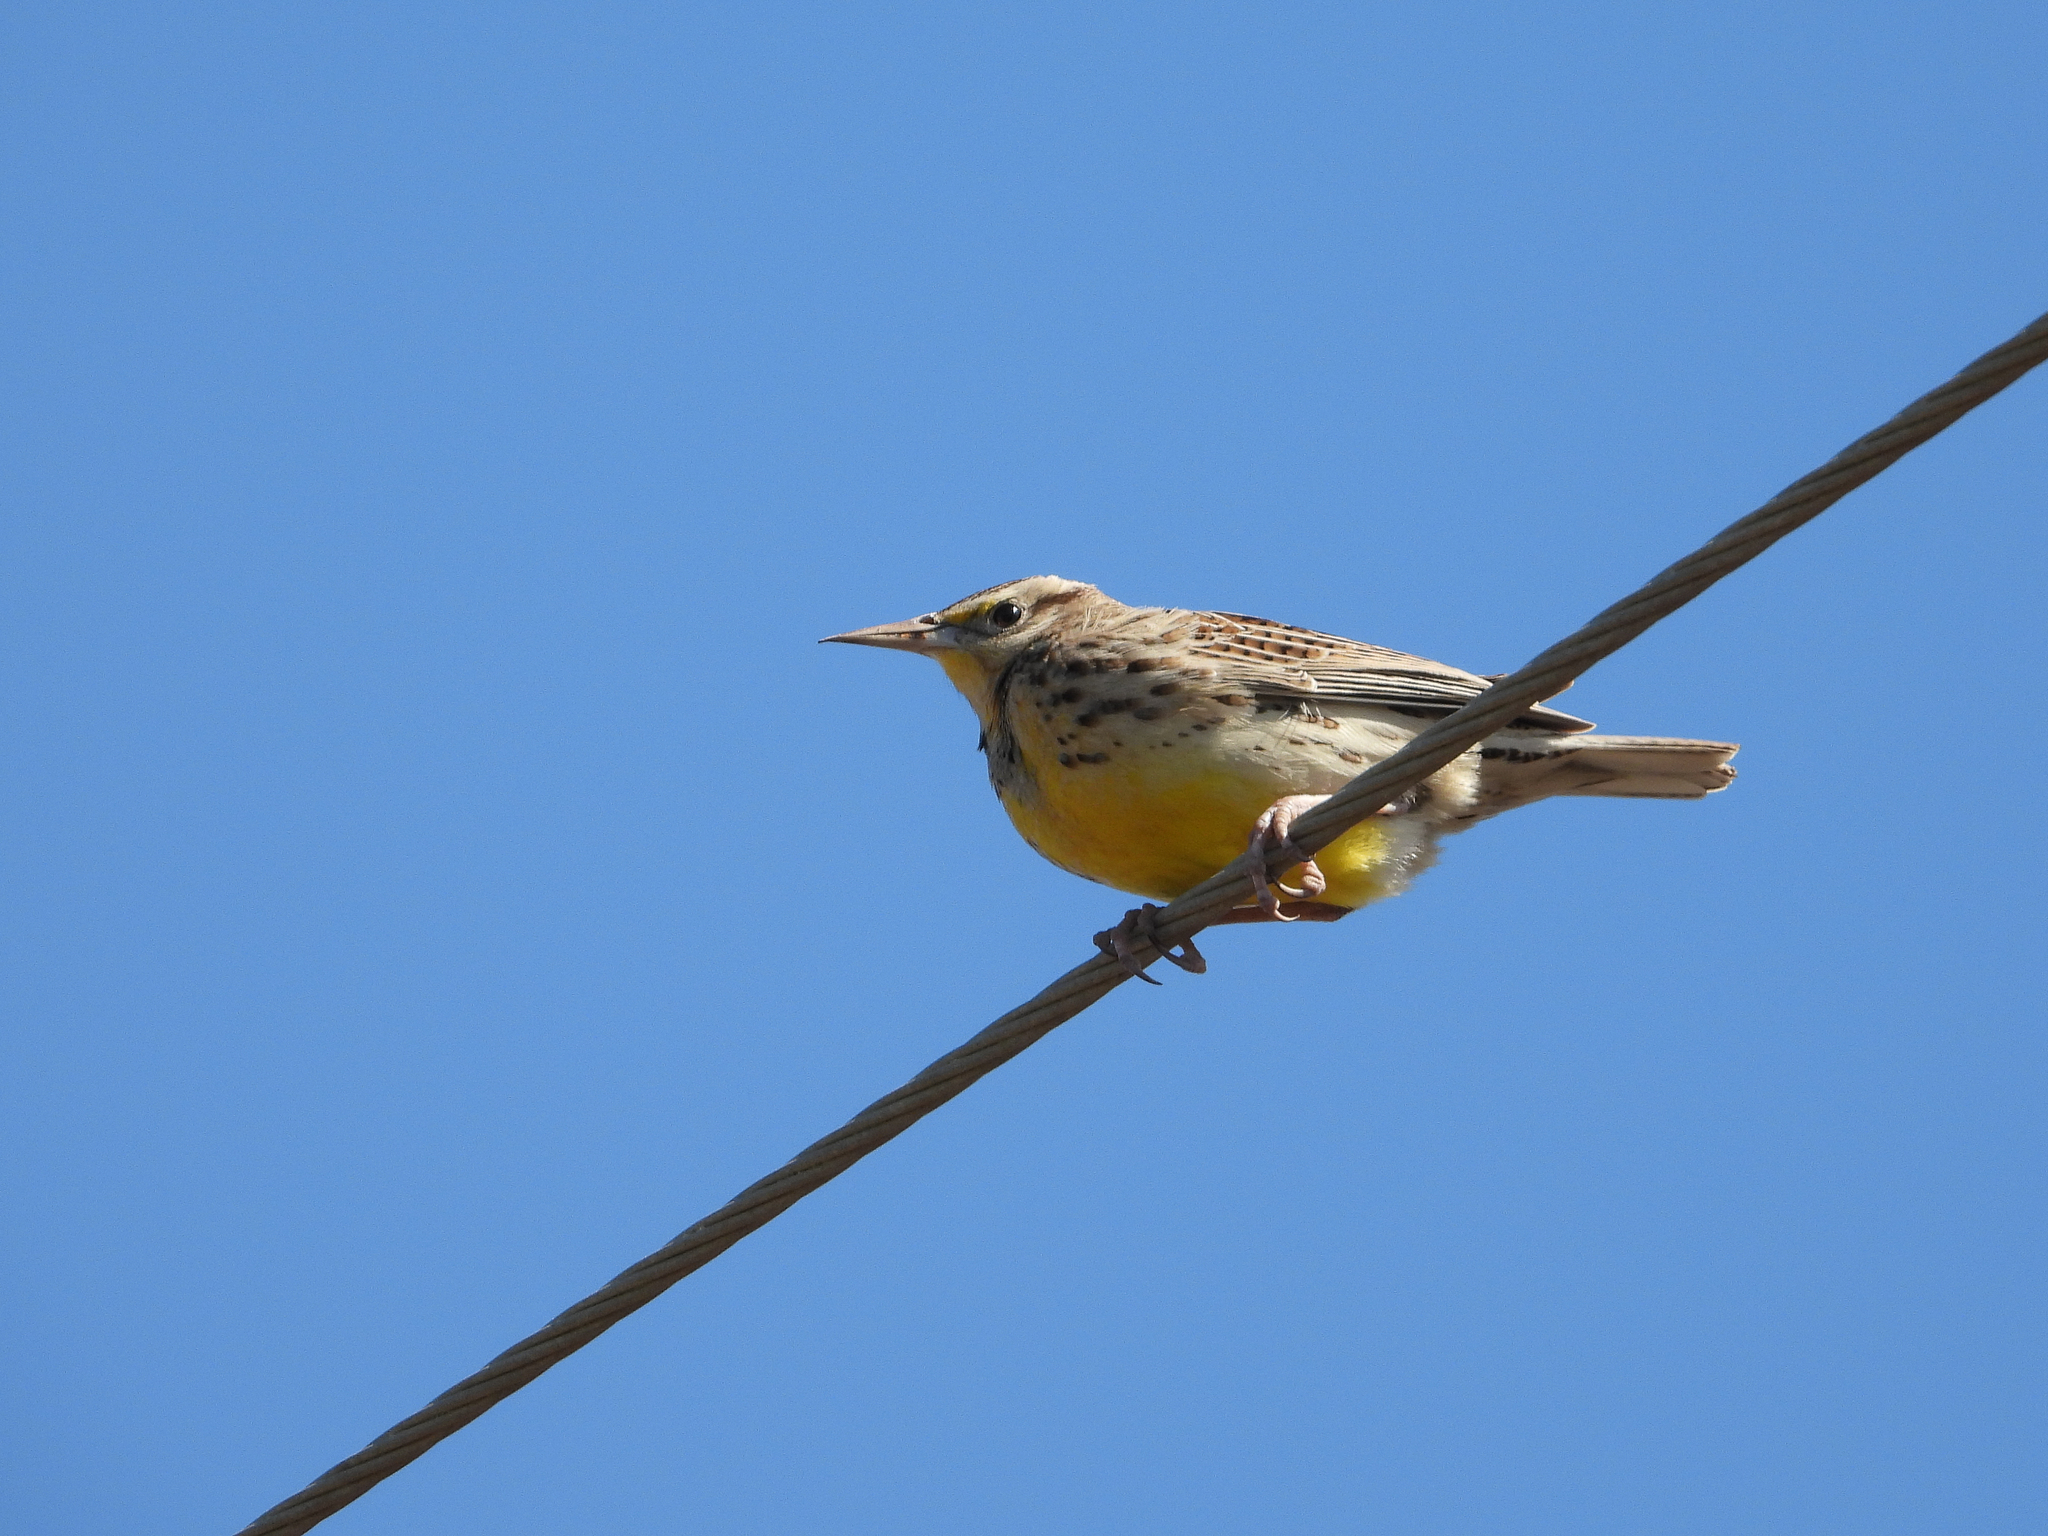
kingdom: Animalia
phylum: Chordata
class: Aves
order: Passeriformes
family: Icteridae
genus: Sturnella
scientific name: Sturnella magna
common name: Eastern meadowlark
